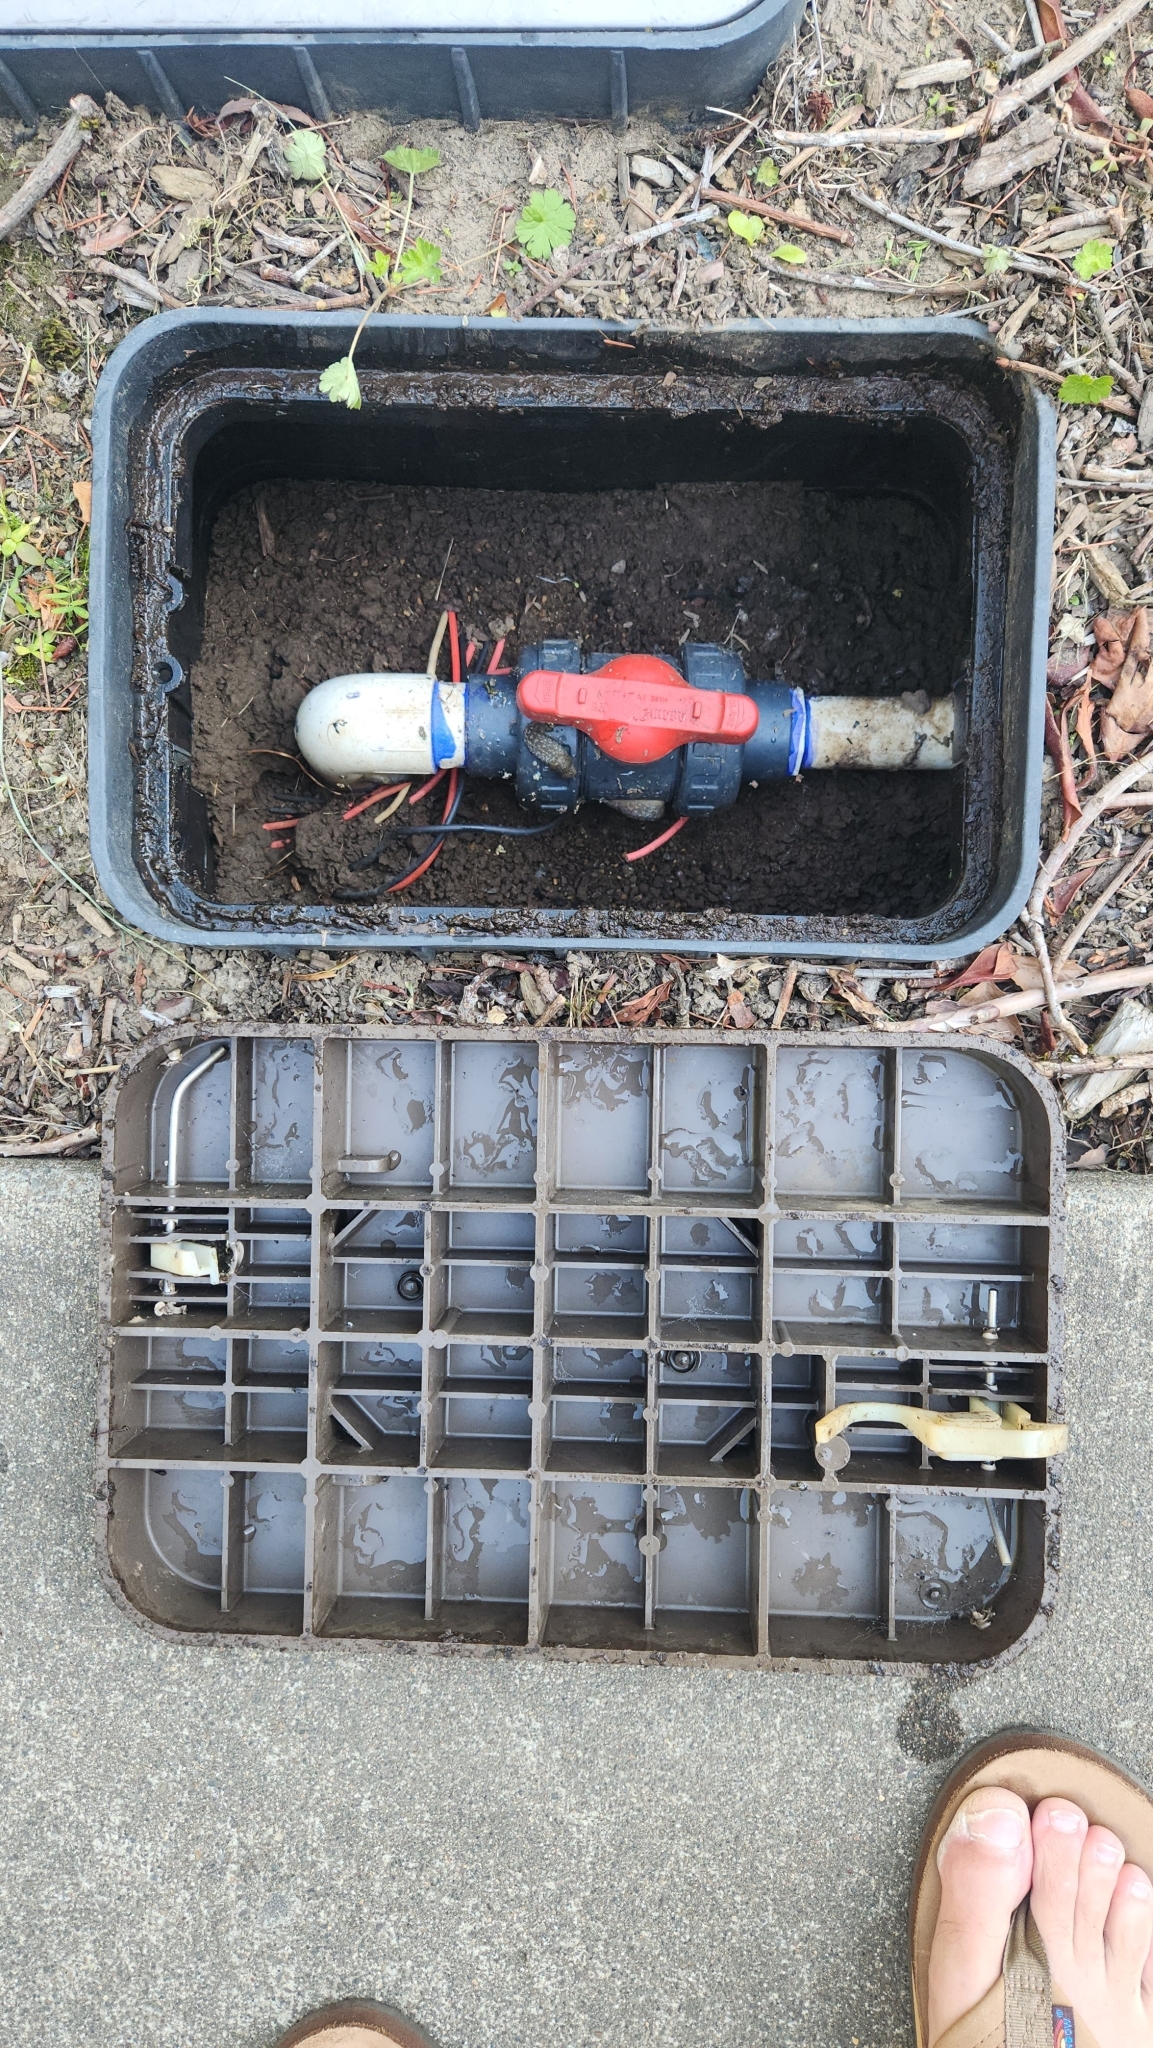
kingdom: Animalia
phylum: Mollusca
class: Gastropoda
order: Stylommatophora
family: Limacidae
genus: Limacus
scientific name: Limacus flavus
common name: Yellow gardenslug
